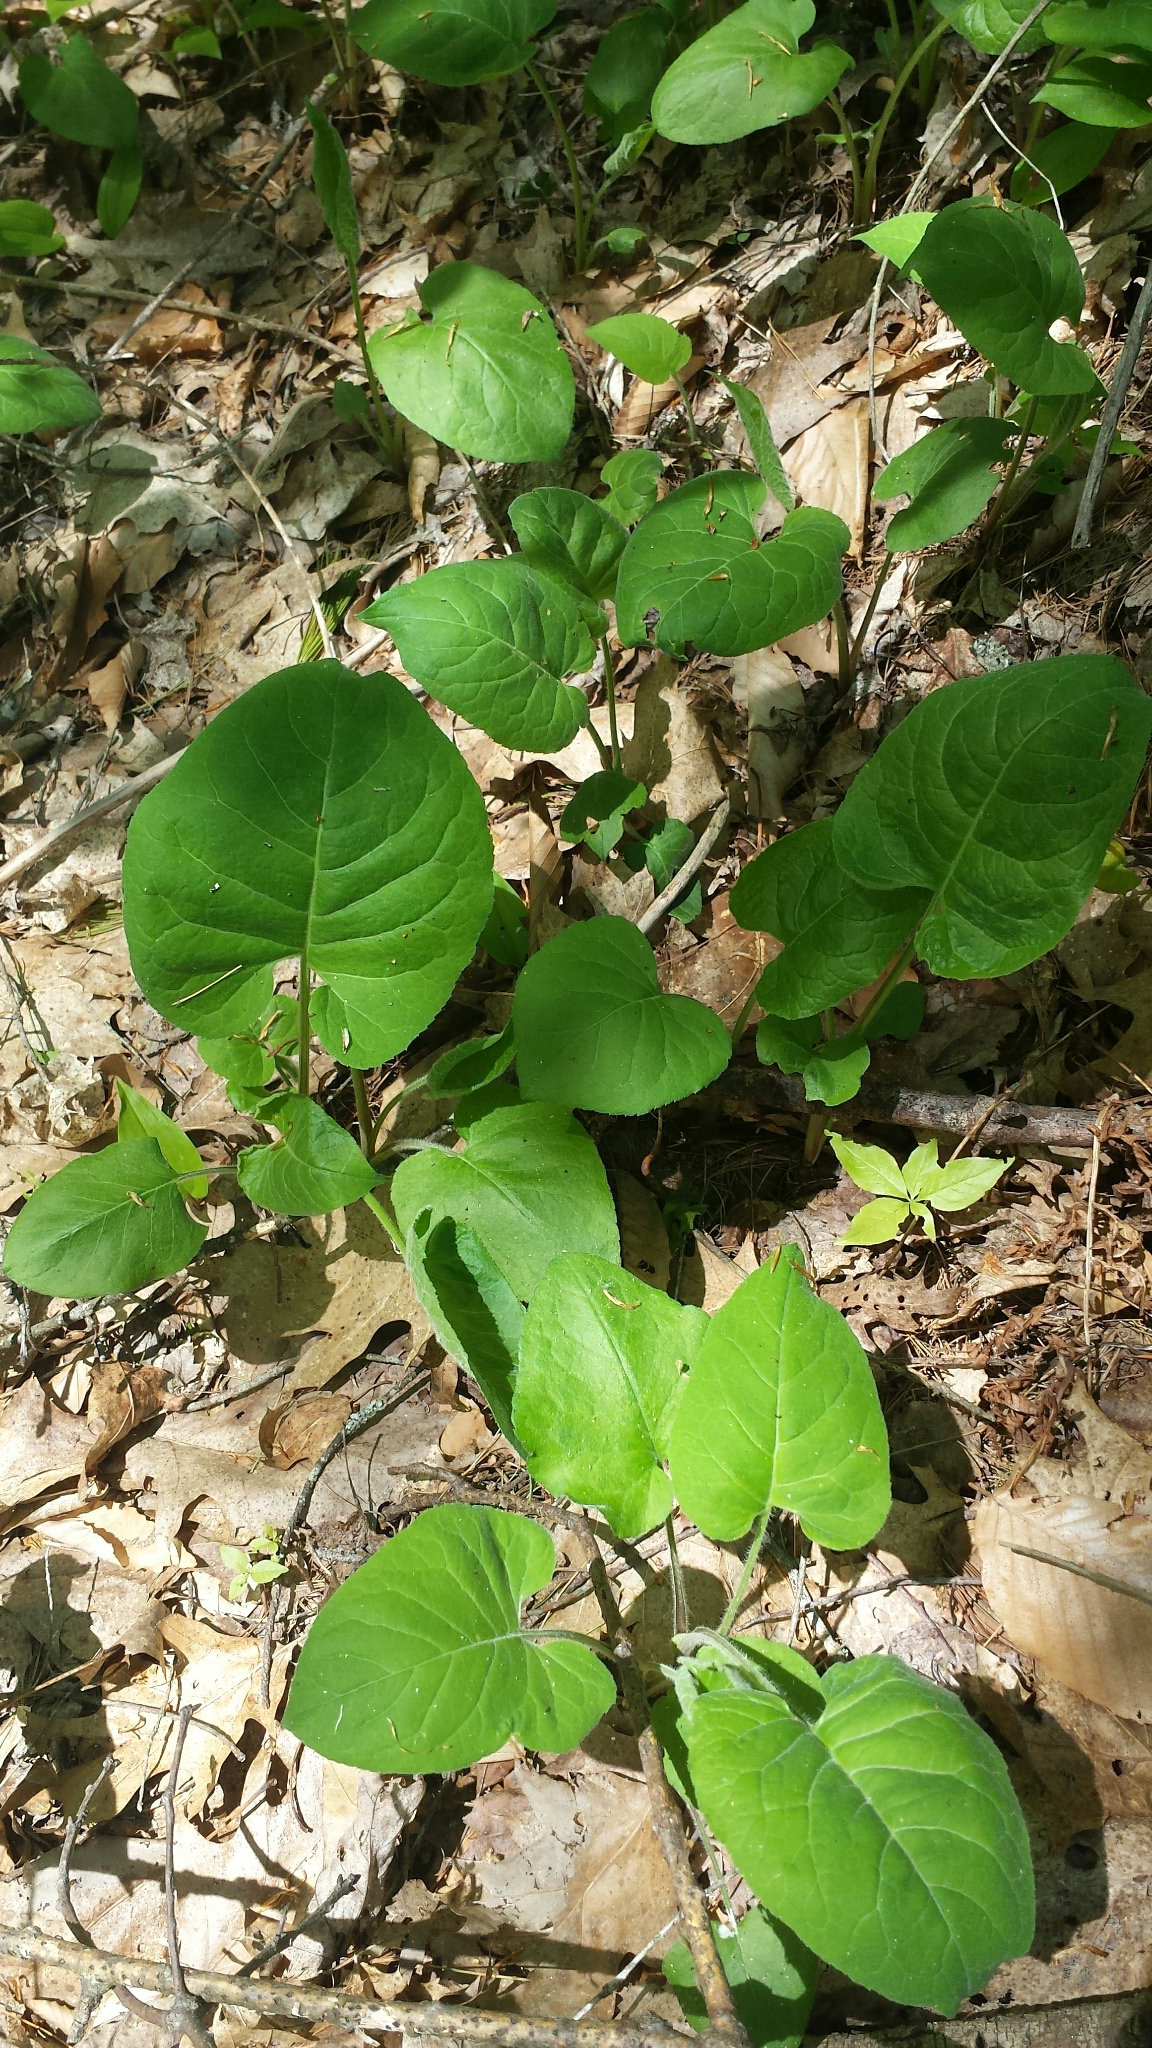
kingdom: Plantae
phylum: Tracheophyta
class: Magnoliopsida
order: Asterales
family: Asteraceae
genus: Eurybia
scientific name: Eurybia macrophylla
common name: Big-leaved aster
